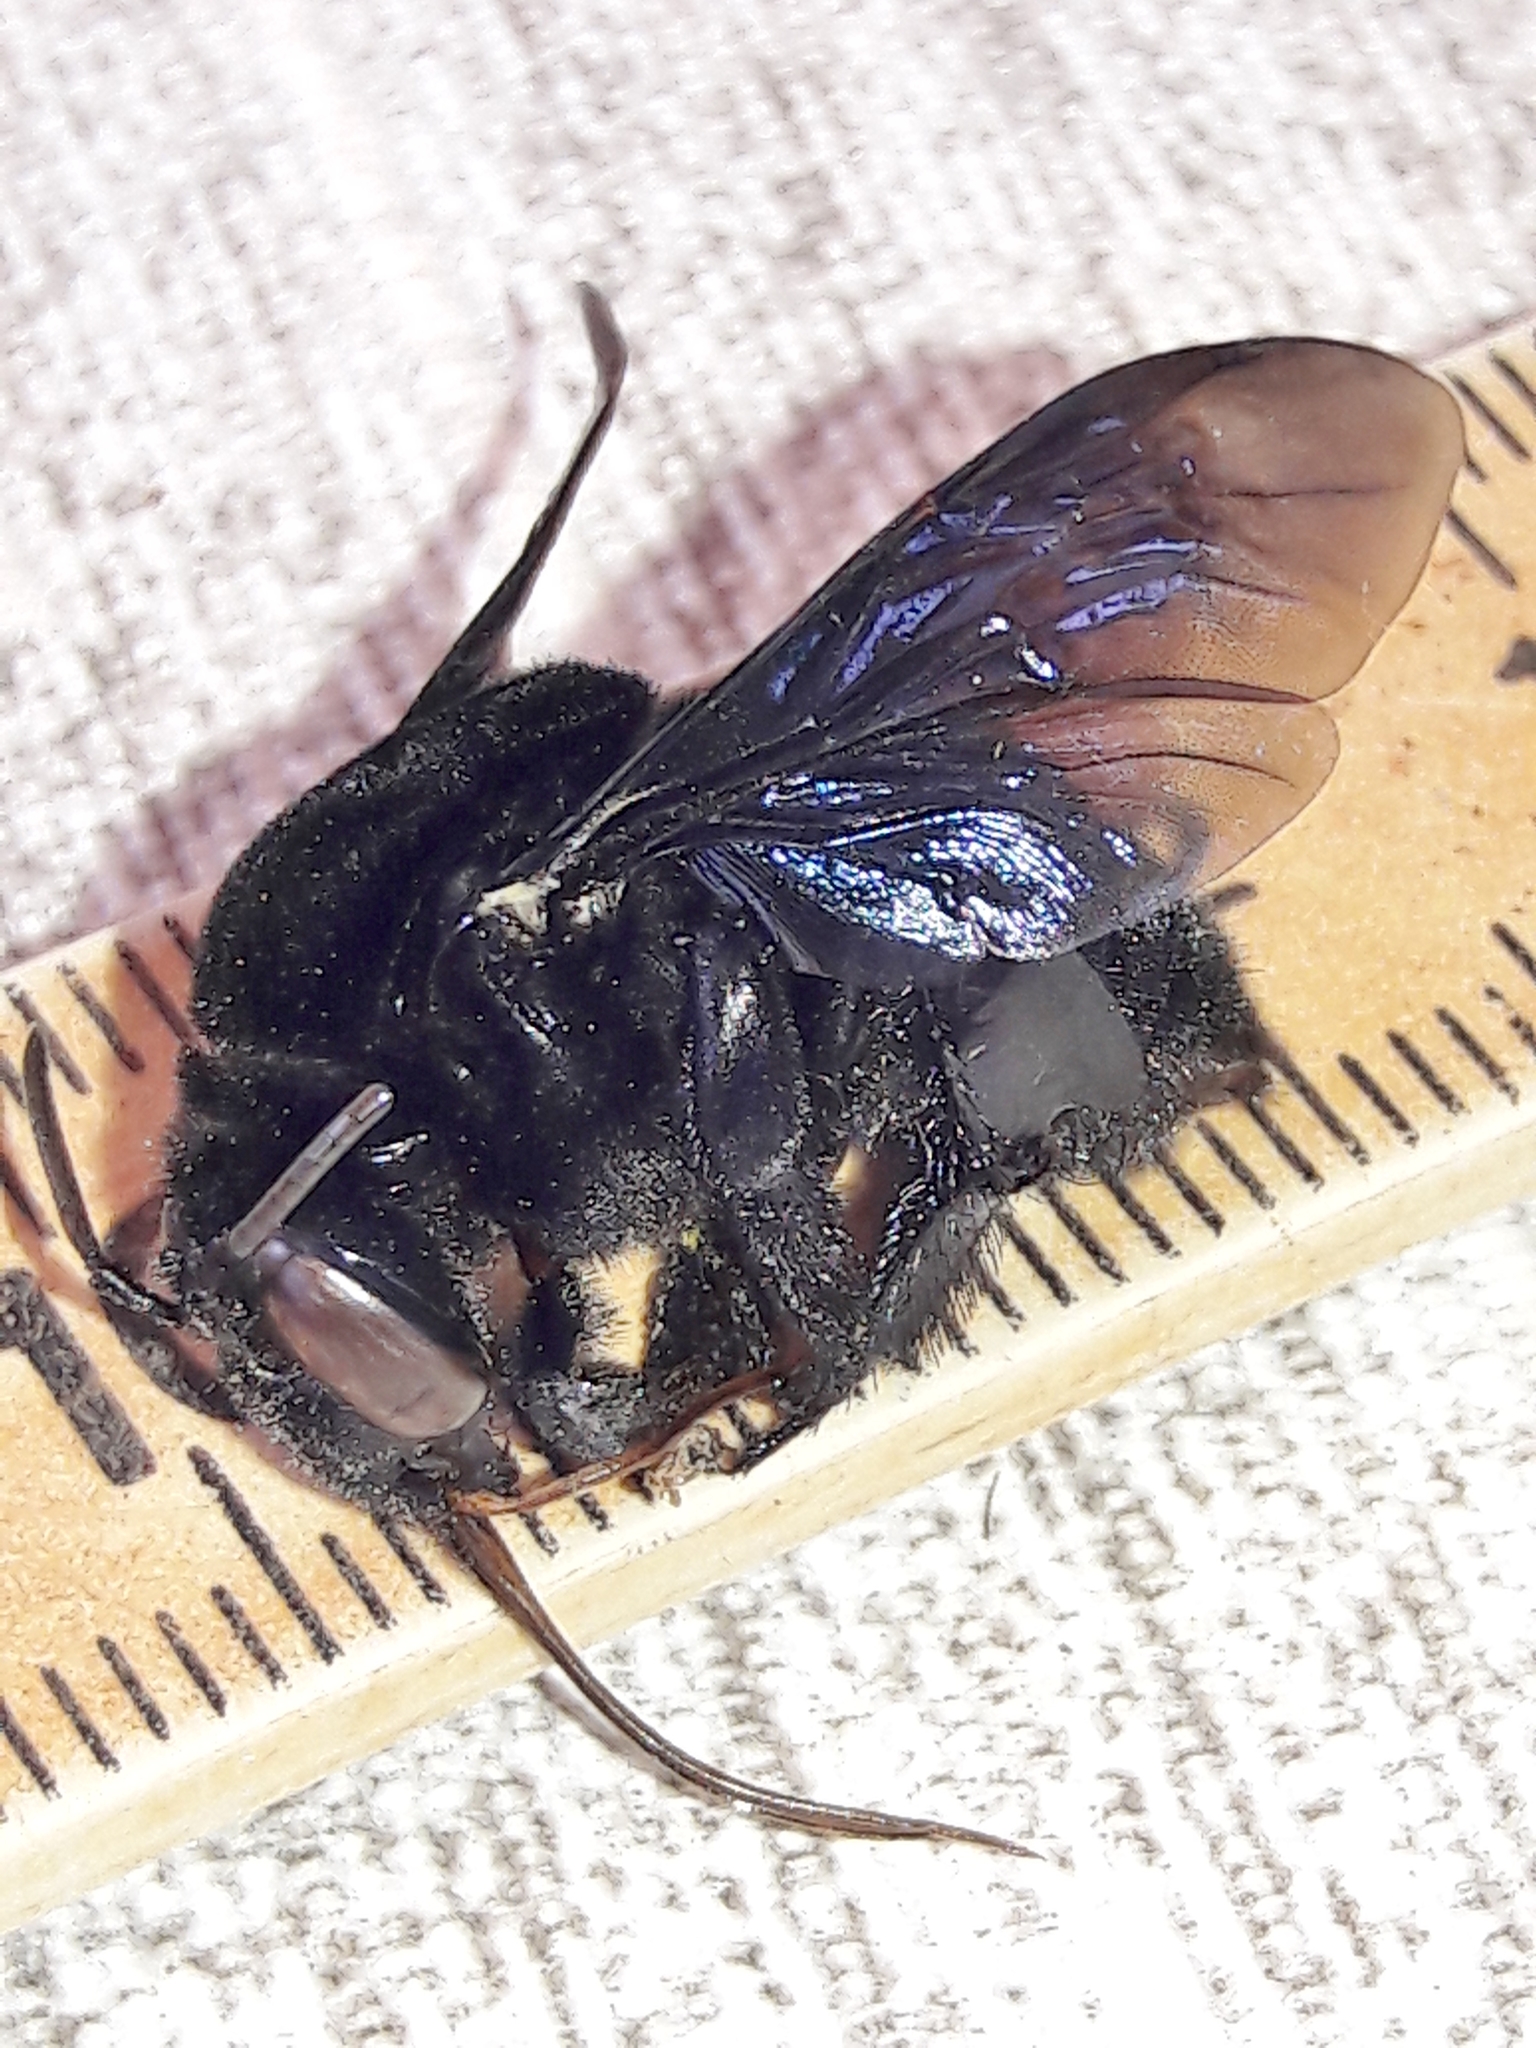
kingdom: Animalia
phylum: Arthropoda
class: Insecta
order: Hymenoptera
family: Apidae
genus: Eulaema
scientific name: Eulaema nigrita
